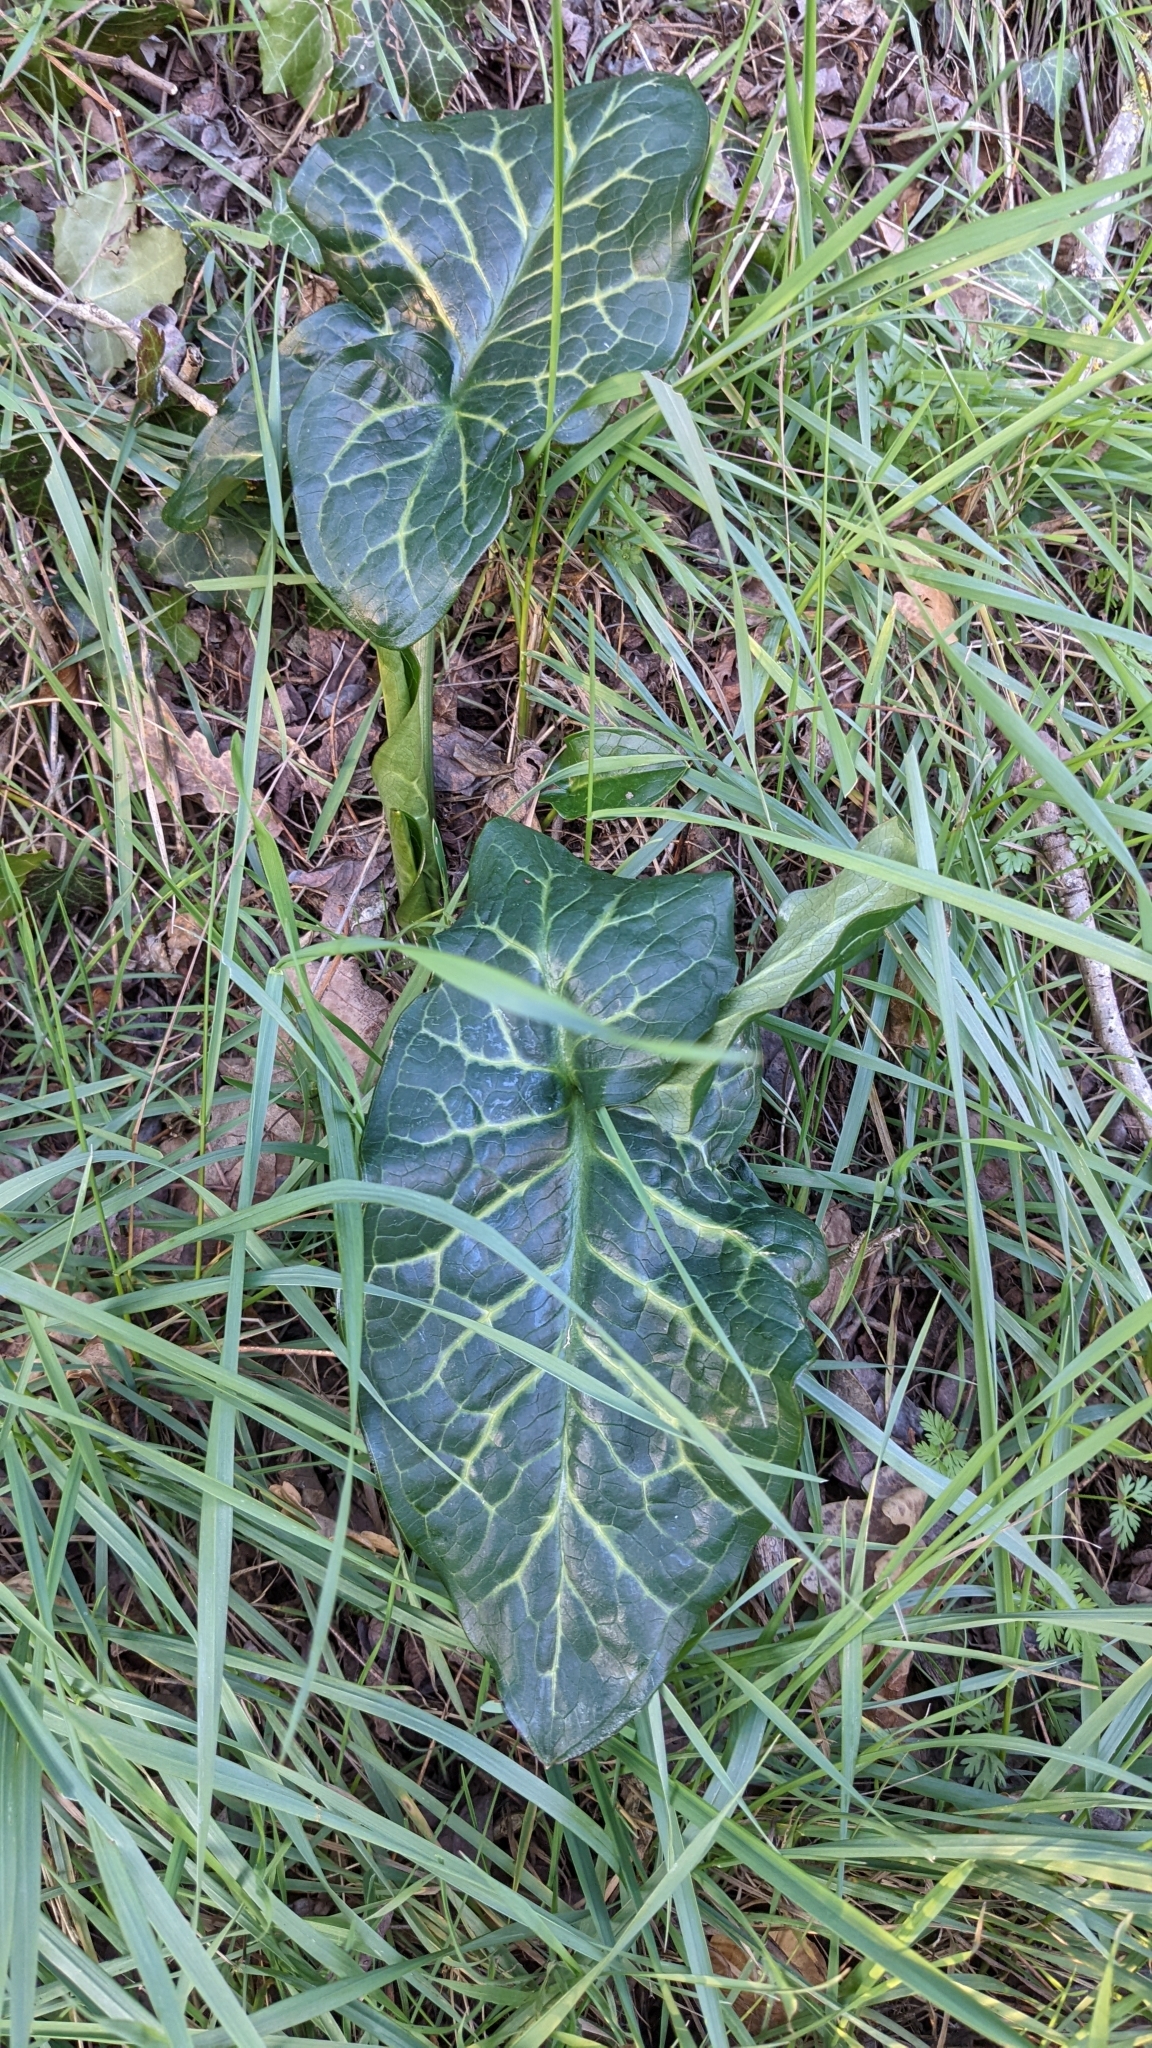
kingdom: Plantae
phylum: Tracheophyta
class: Liliopsida
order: Alismatales
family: Araceae
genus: Arum
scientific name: Arum italicum
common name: Italian lords-and-ladies
